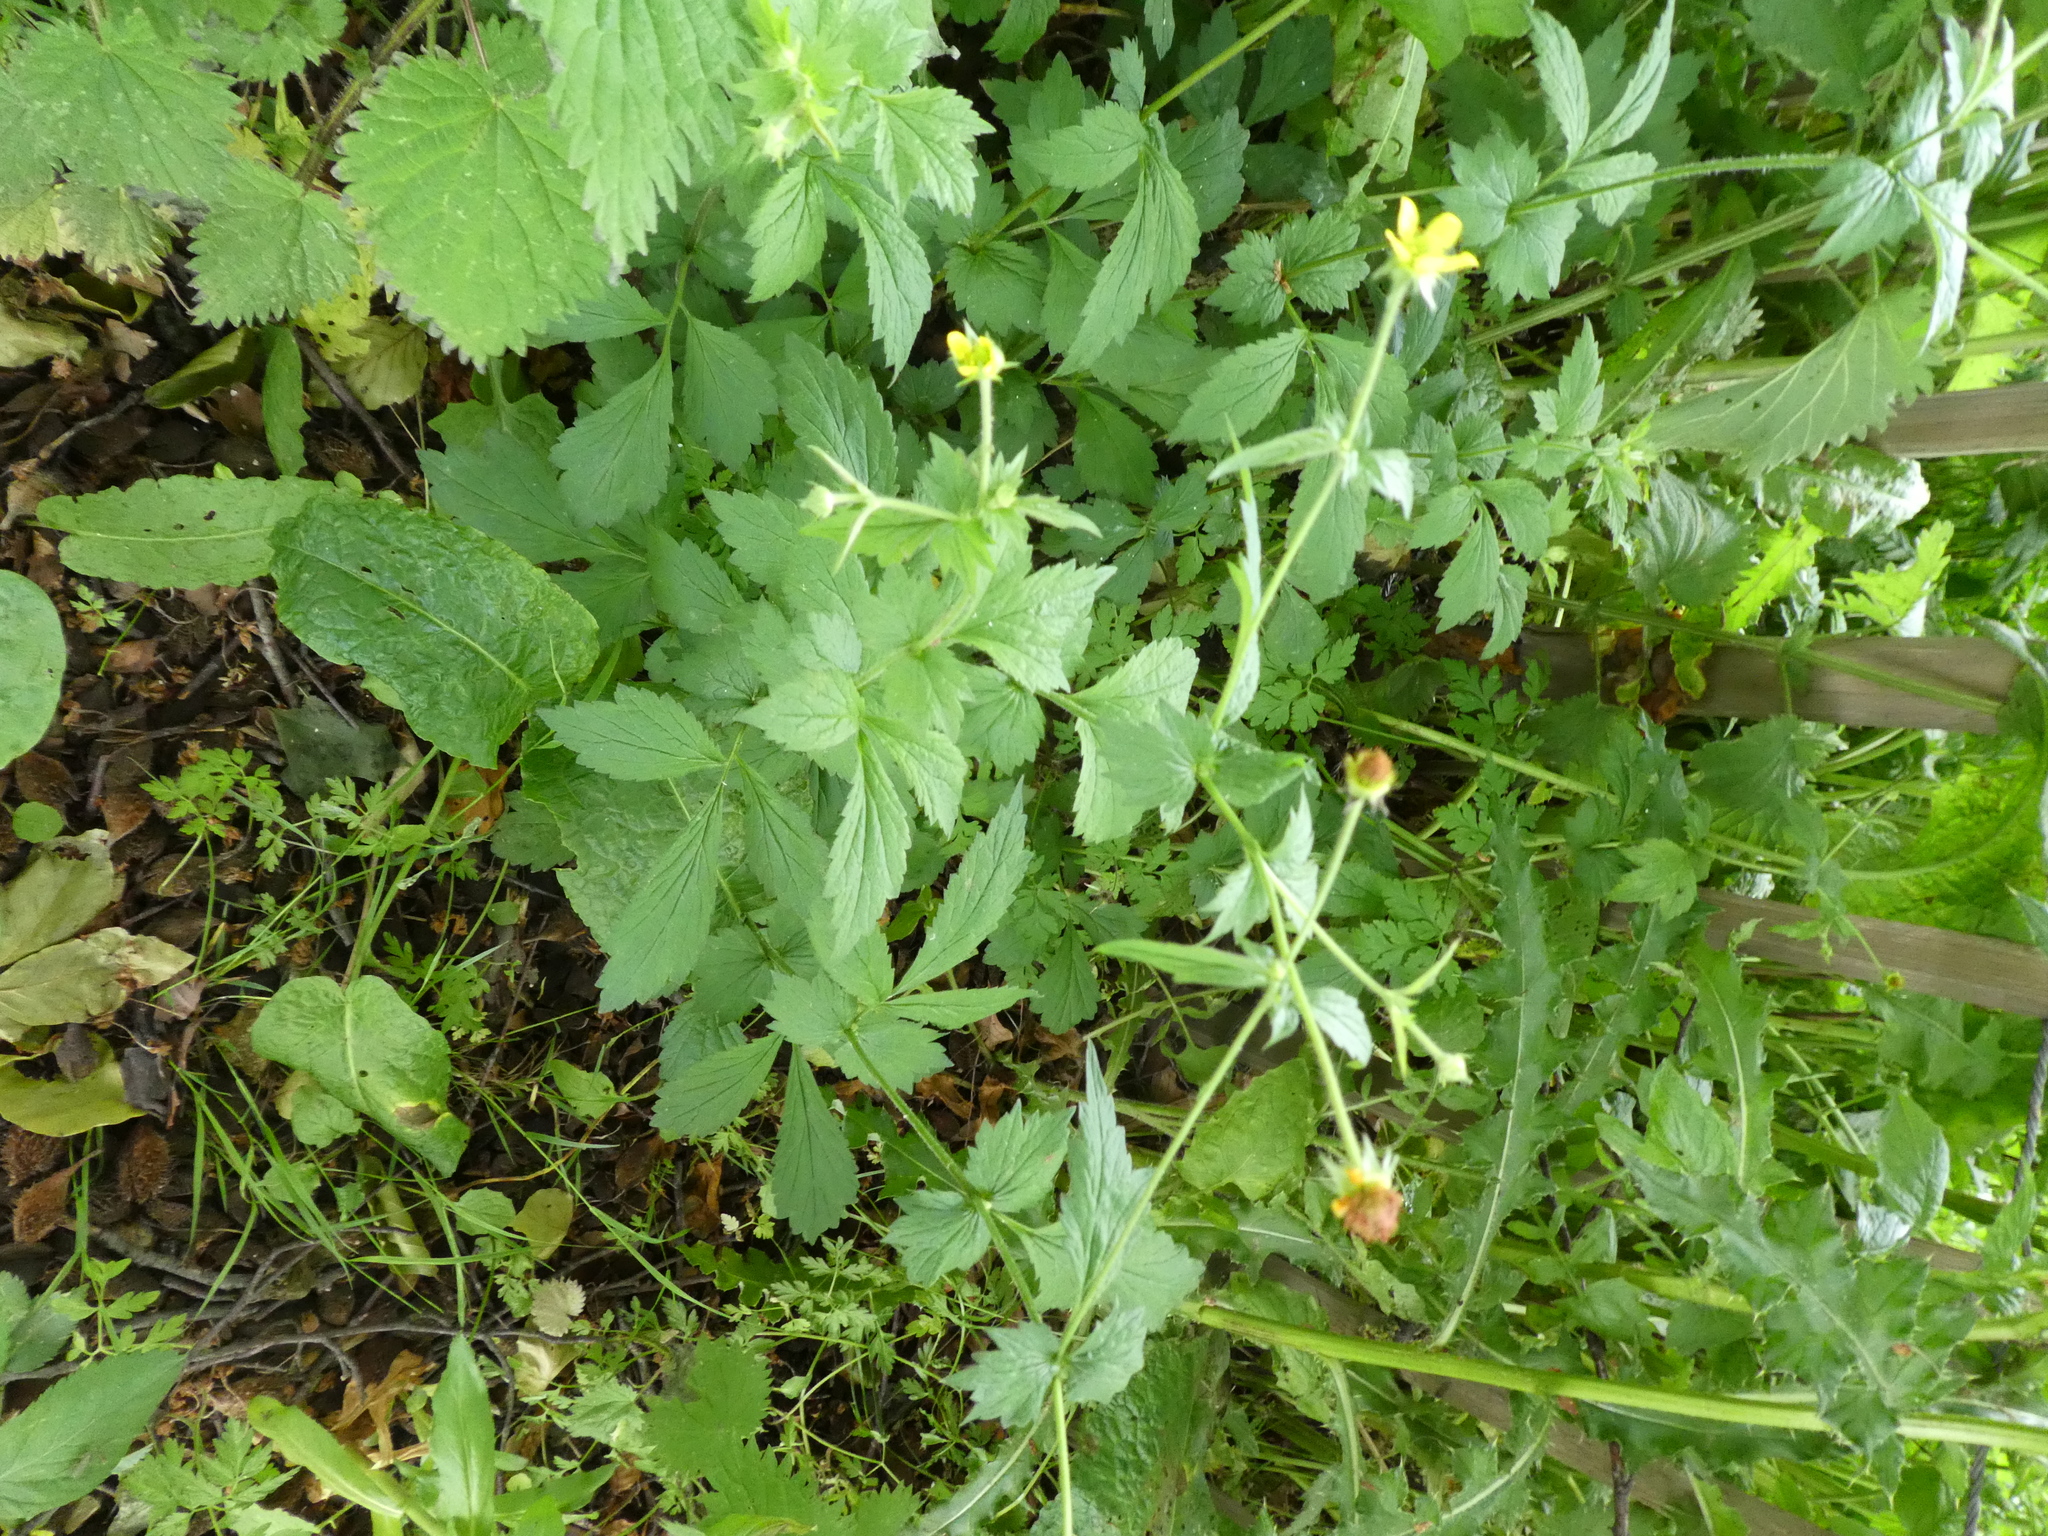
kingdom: Plantae
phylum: Tracheophyta
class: Magnoliopsida
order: Rosales
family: Rosaceae
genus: Geum
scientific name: Geum urbanum
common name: Wood avens
